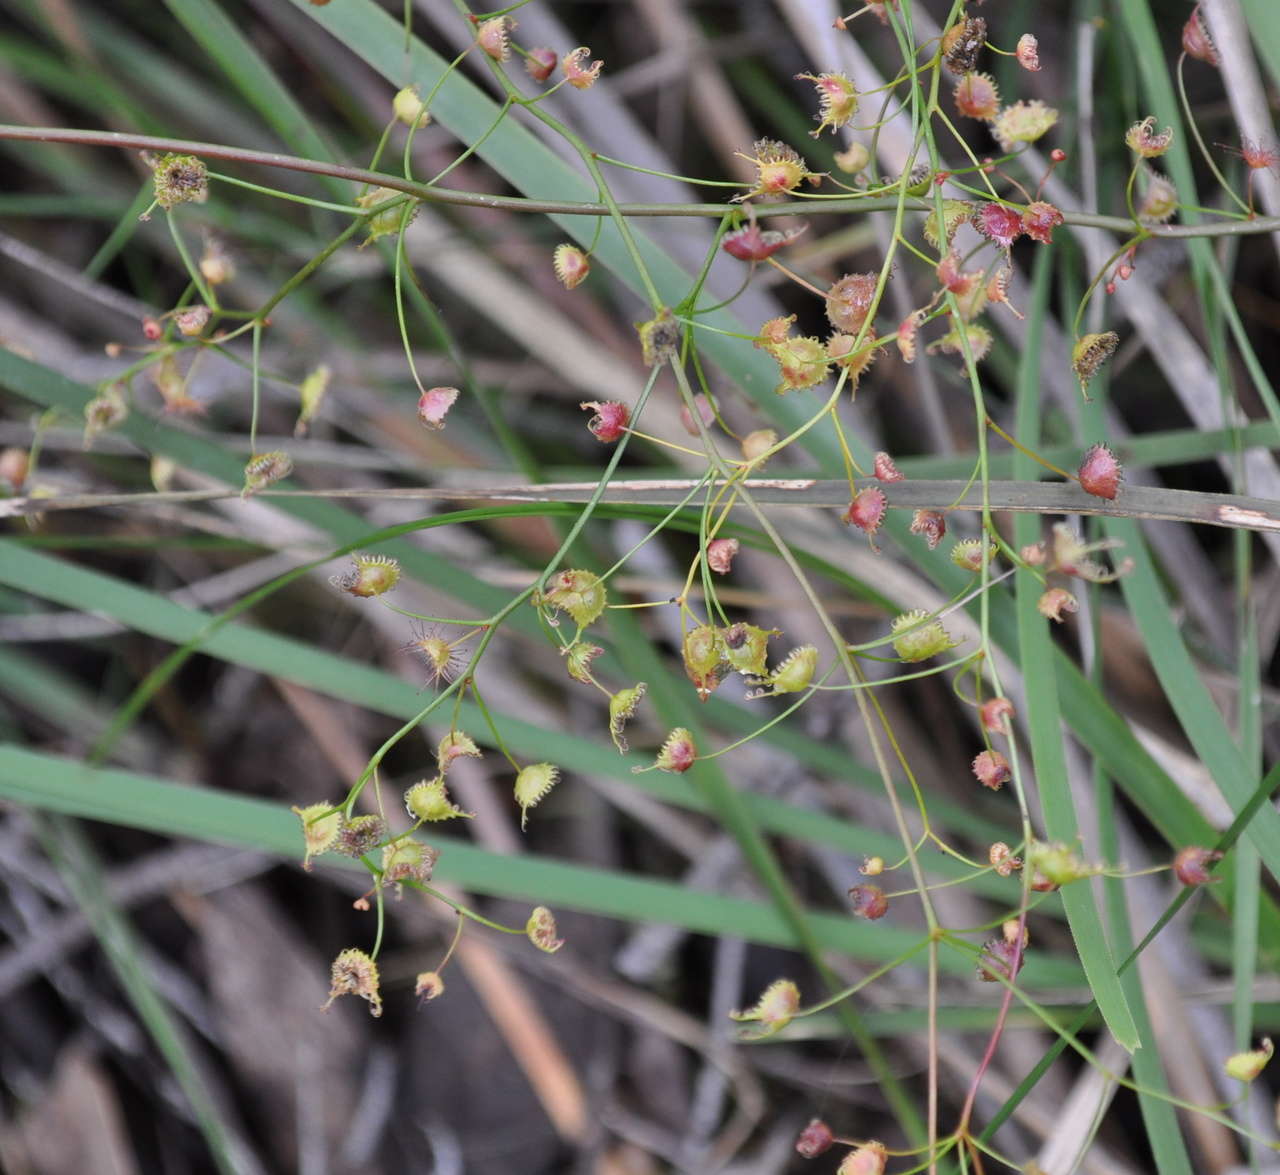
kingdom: Plantae
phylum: Tracheophyta
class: Magnoliopsida
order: Caryophyllales
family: Droseraceae
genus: Drosera
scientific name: Drosera peltata
